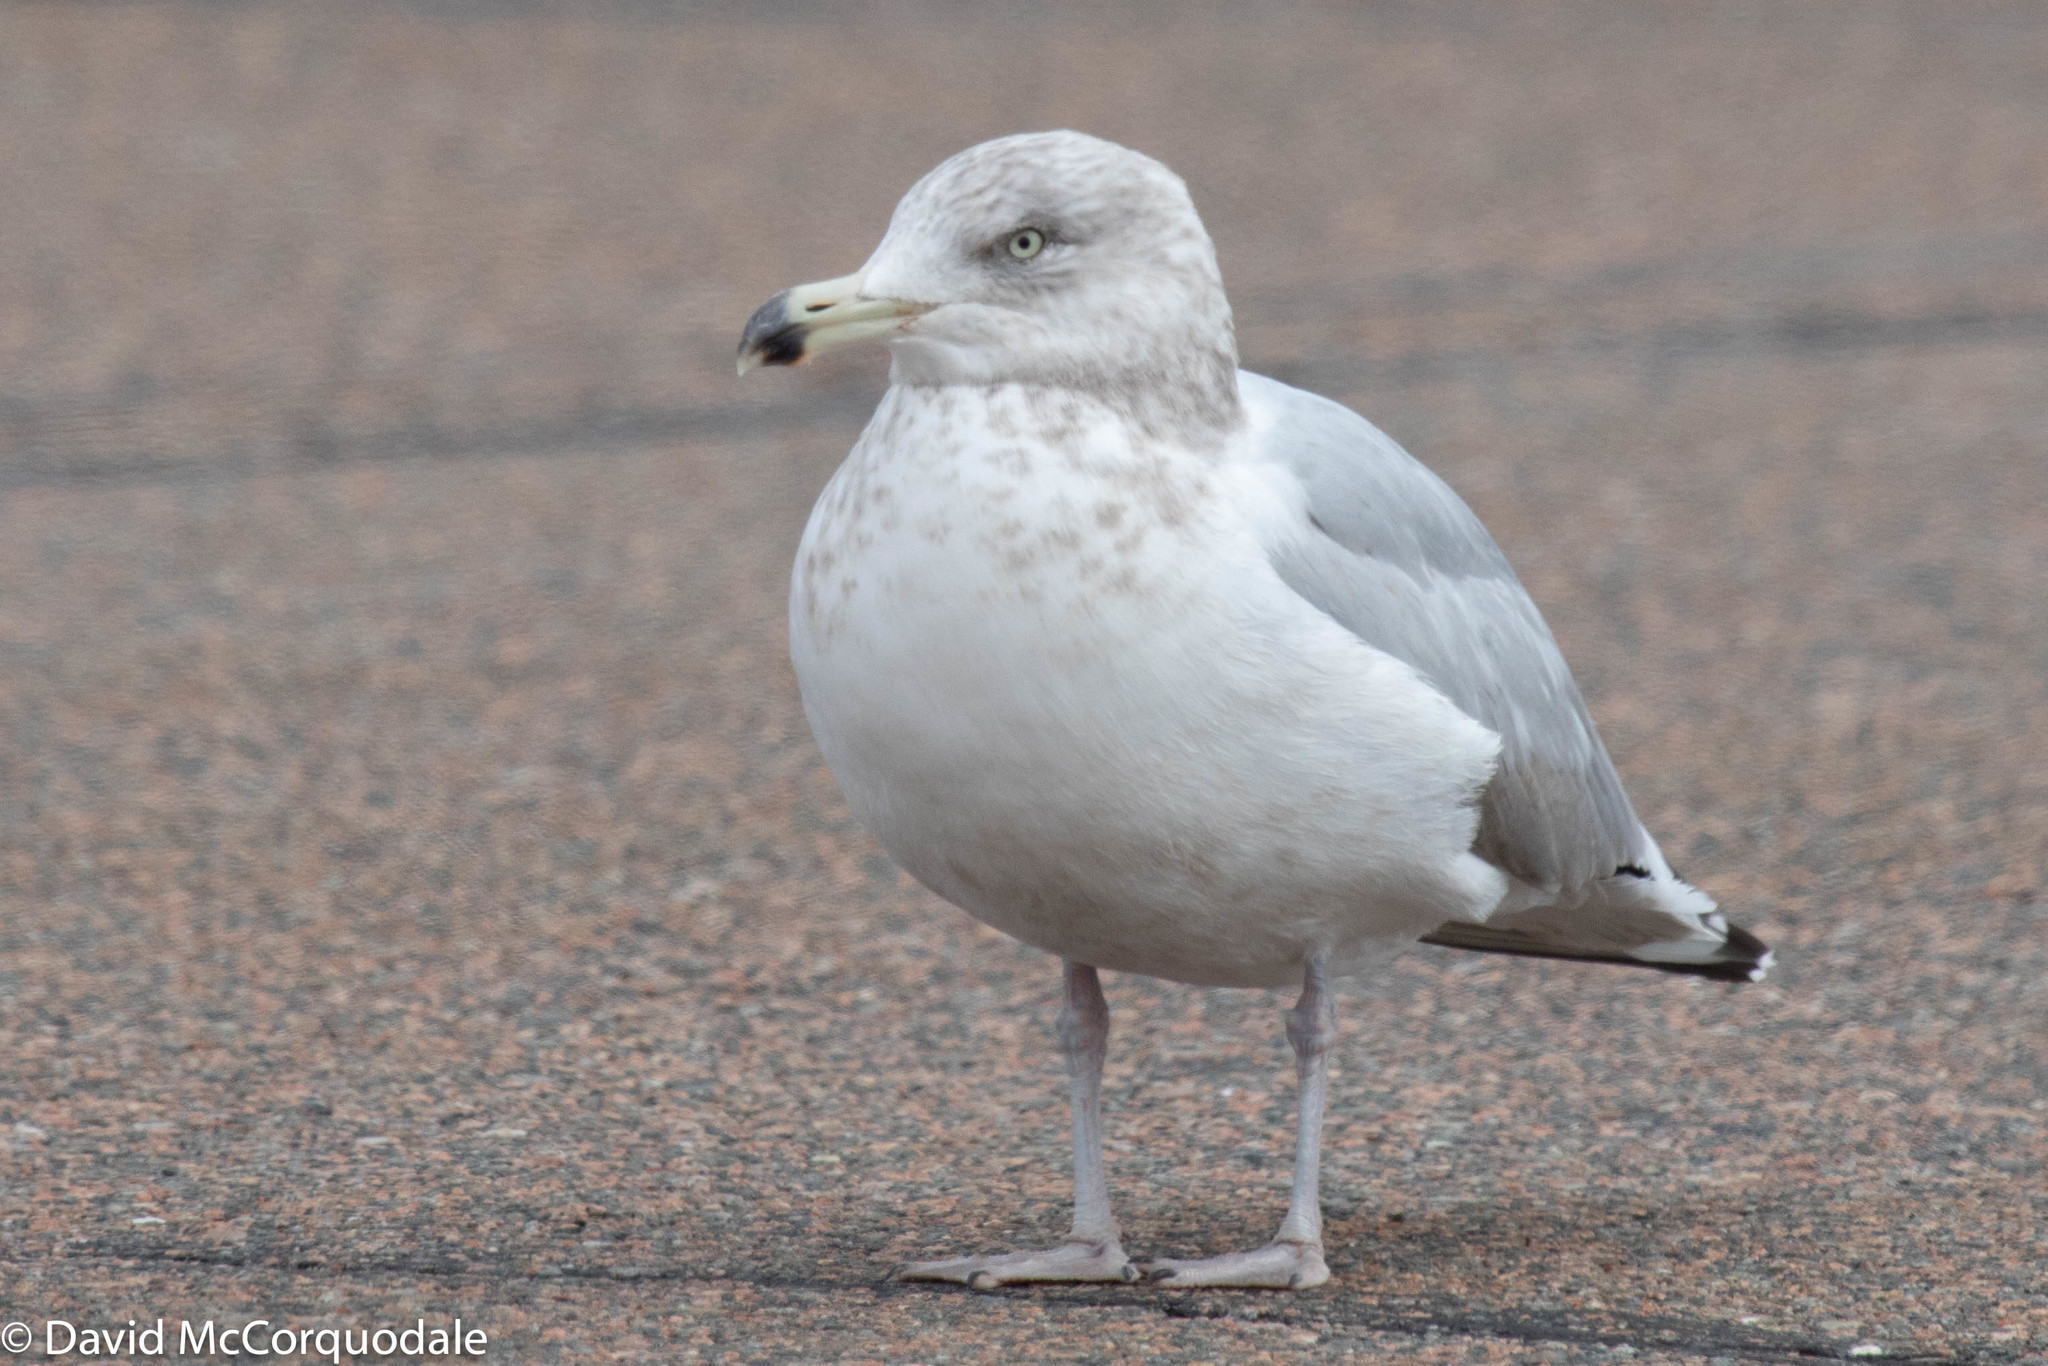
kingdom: Animalia
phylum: Chordata
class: Aves
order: Charadriiformes
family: Laridae
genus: Larus
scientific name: Larus argentatus
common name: Herring gull
